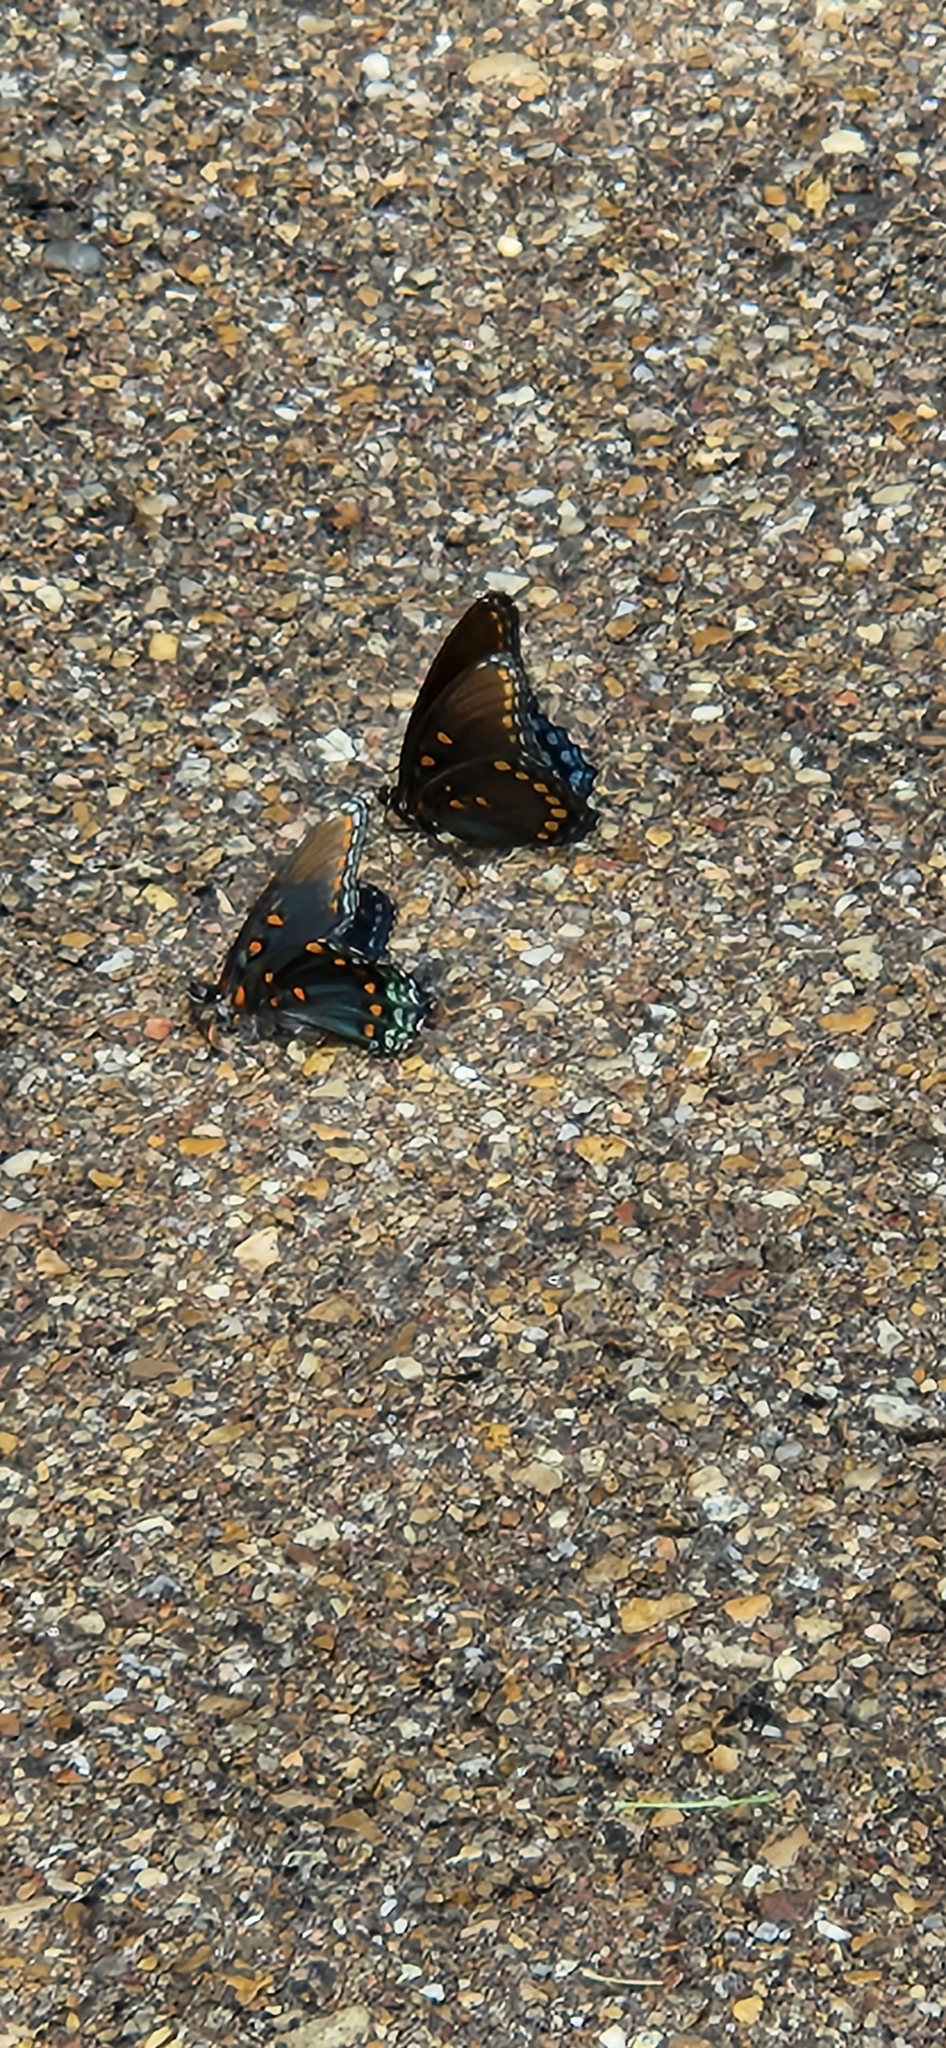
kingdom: Animalia
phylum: Arthropoda
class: Insecta
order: Lepidoptera
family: Nymphalidae
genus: Limenitis
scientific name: Limenitis arthemis
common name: Red-spotted admiral
